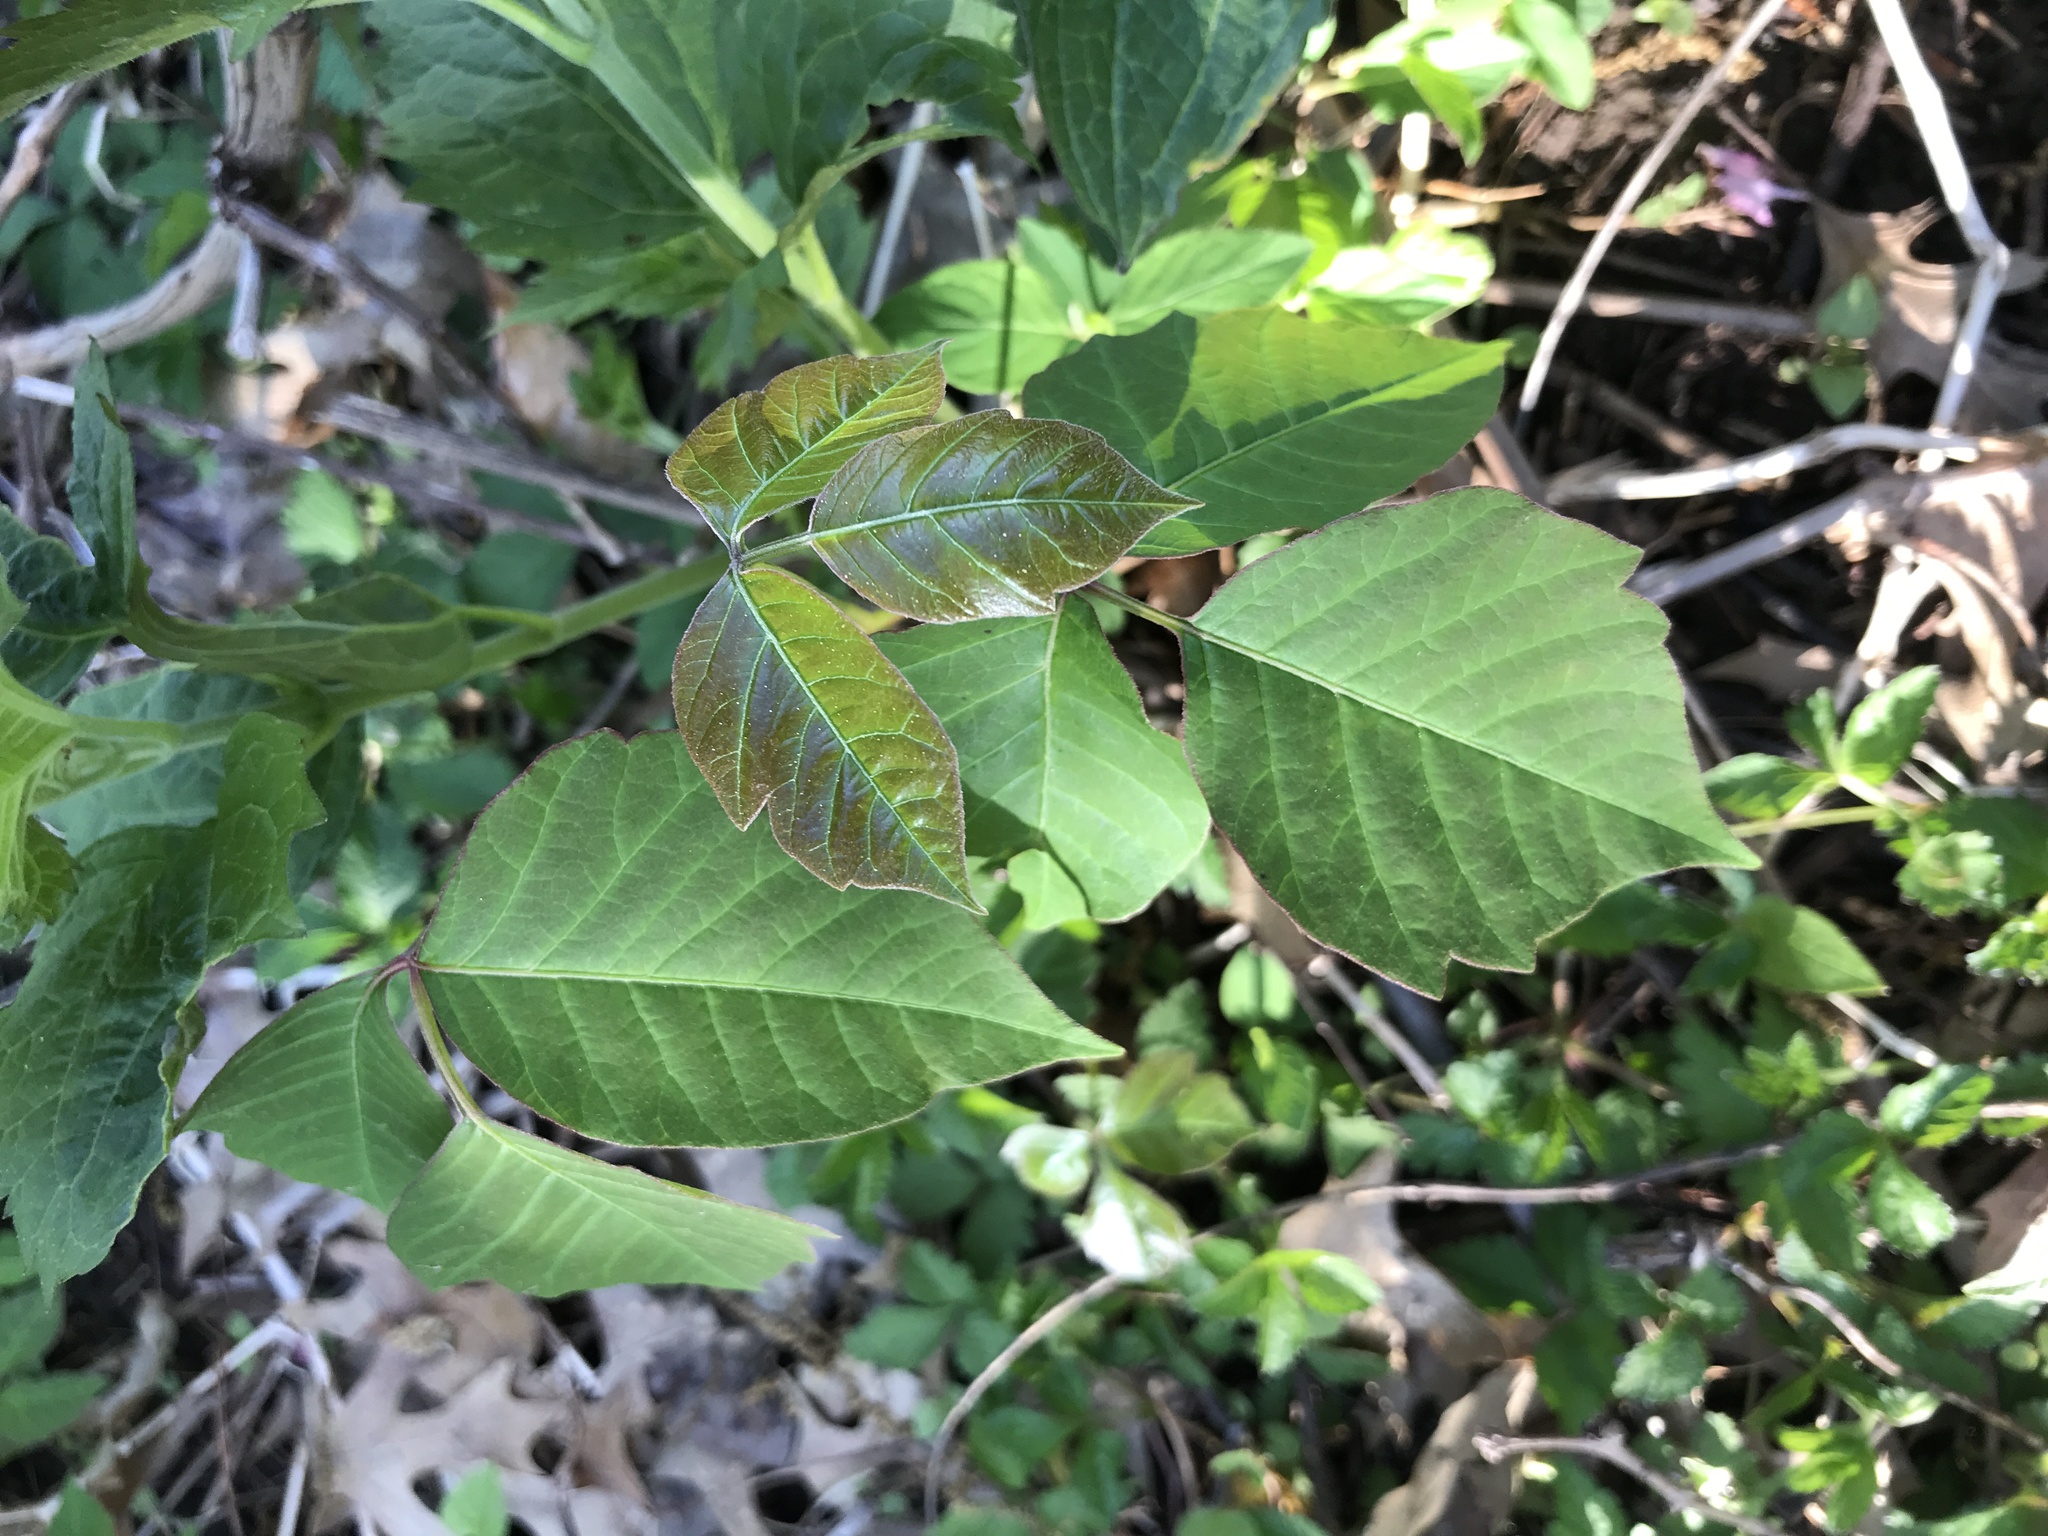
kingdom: Plantae
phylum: Tracheophyta
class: Magnoliopsida
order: Sapindales
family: Anacardiaceae
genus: Toxicodendron
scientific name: Toxicodendron radicans
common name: Poison ivy
